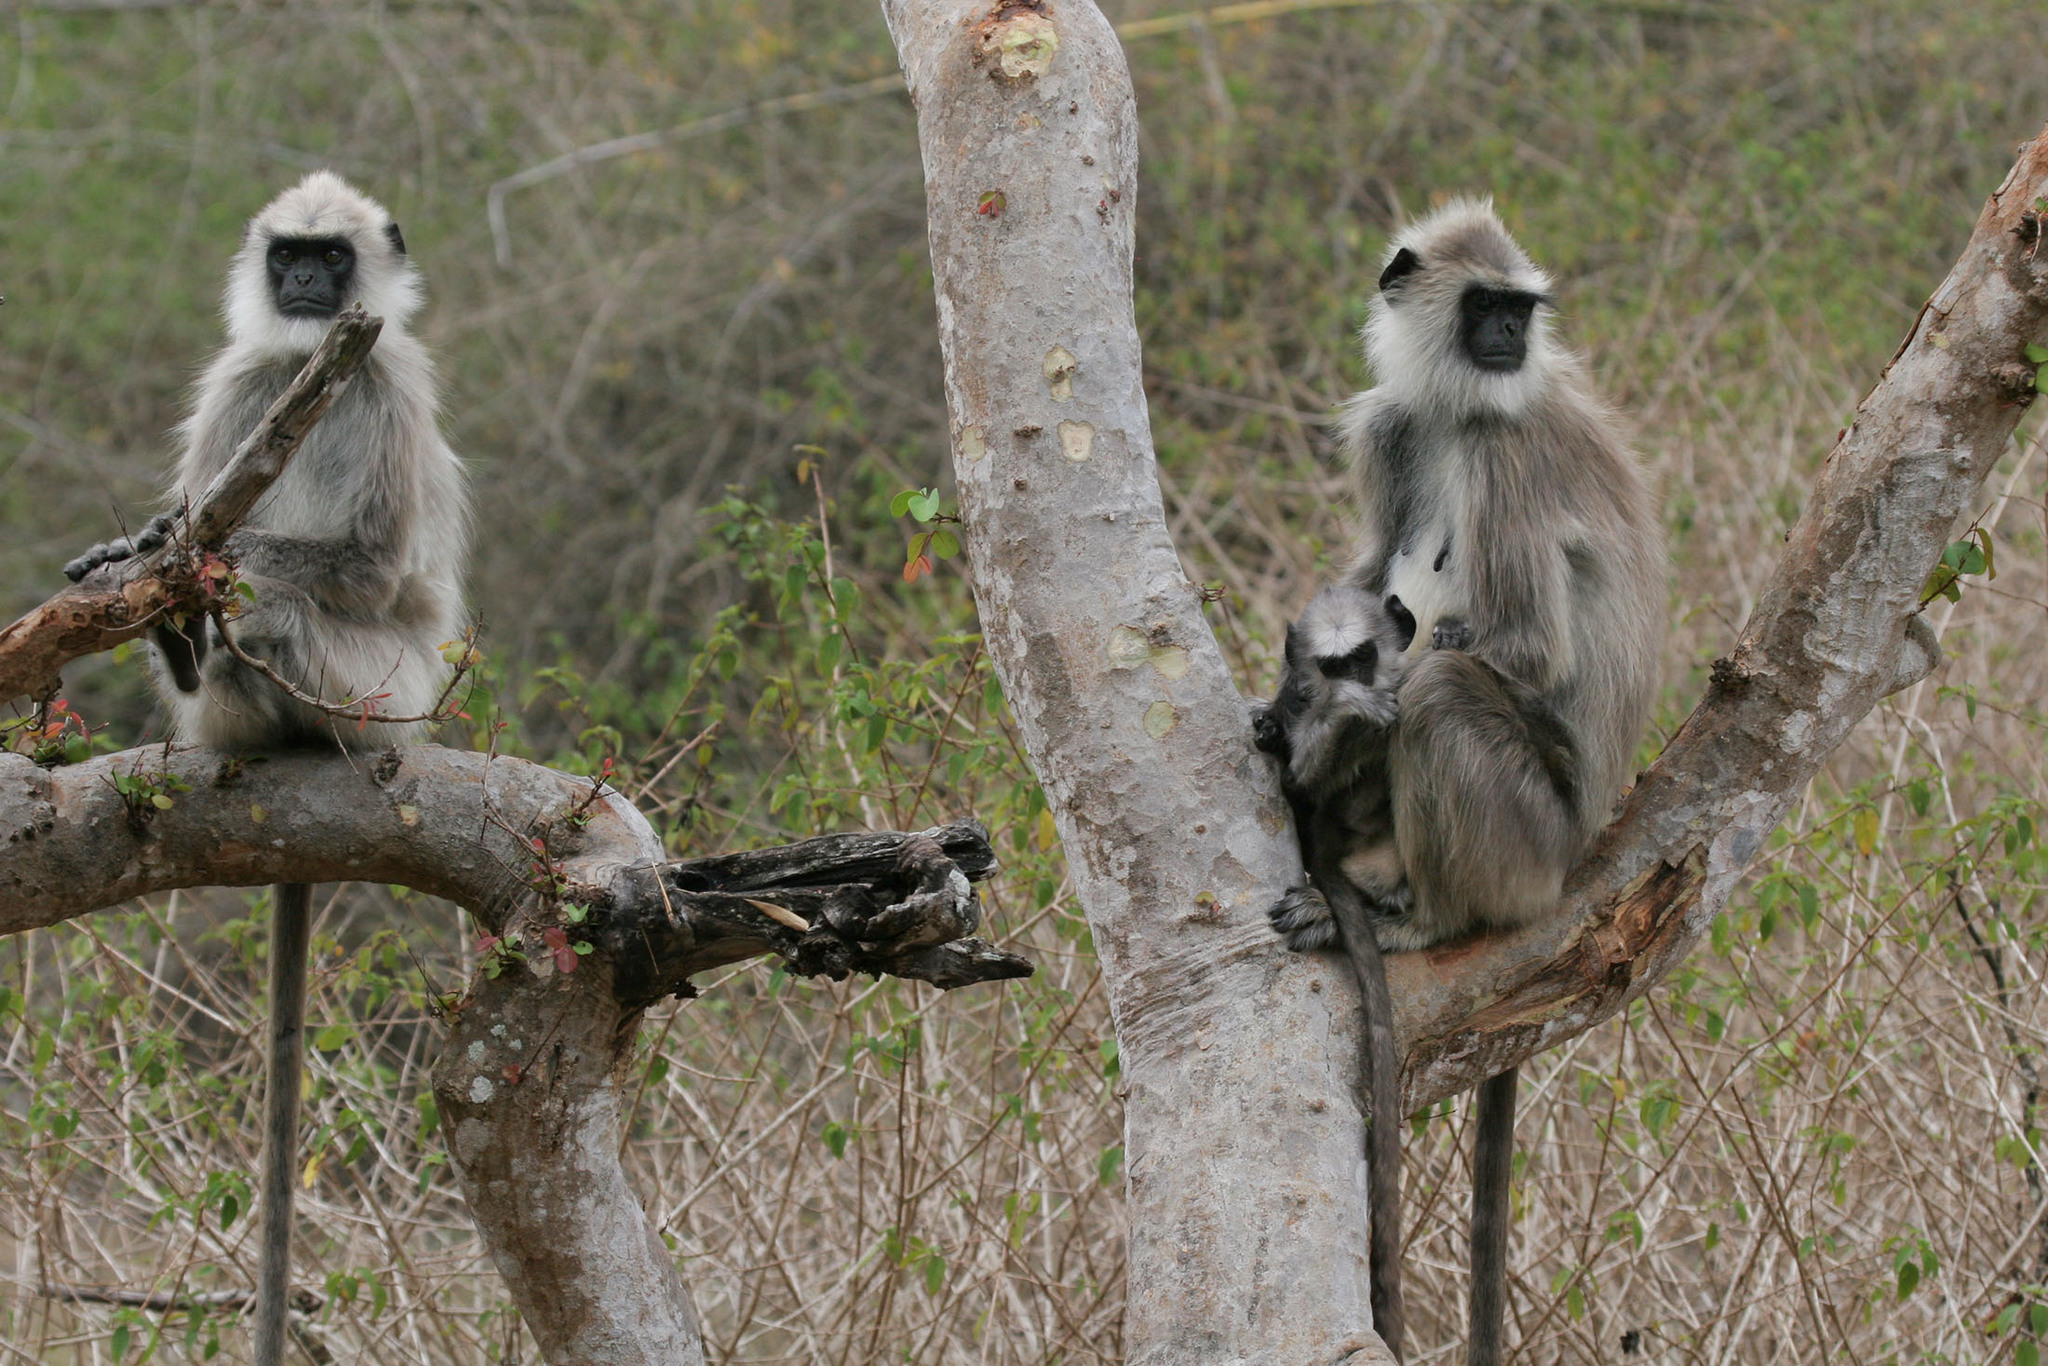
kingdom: Animalia
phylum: Chordata
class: Mammalia
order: Primates
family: Cercopithecidae
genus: Semnopithecus
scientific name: Semnopithecus priam
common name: Tufted gray langur
